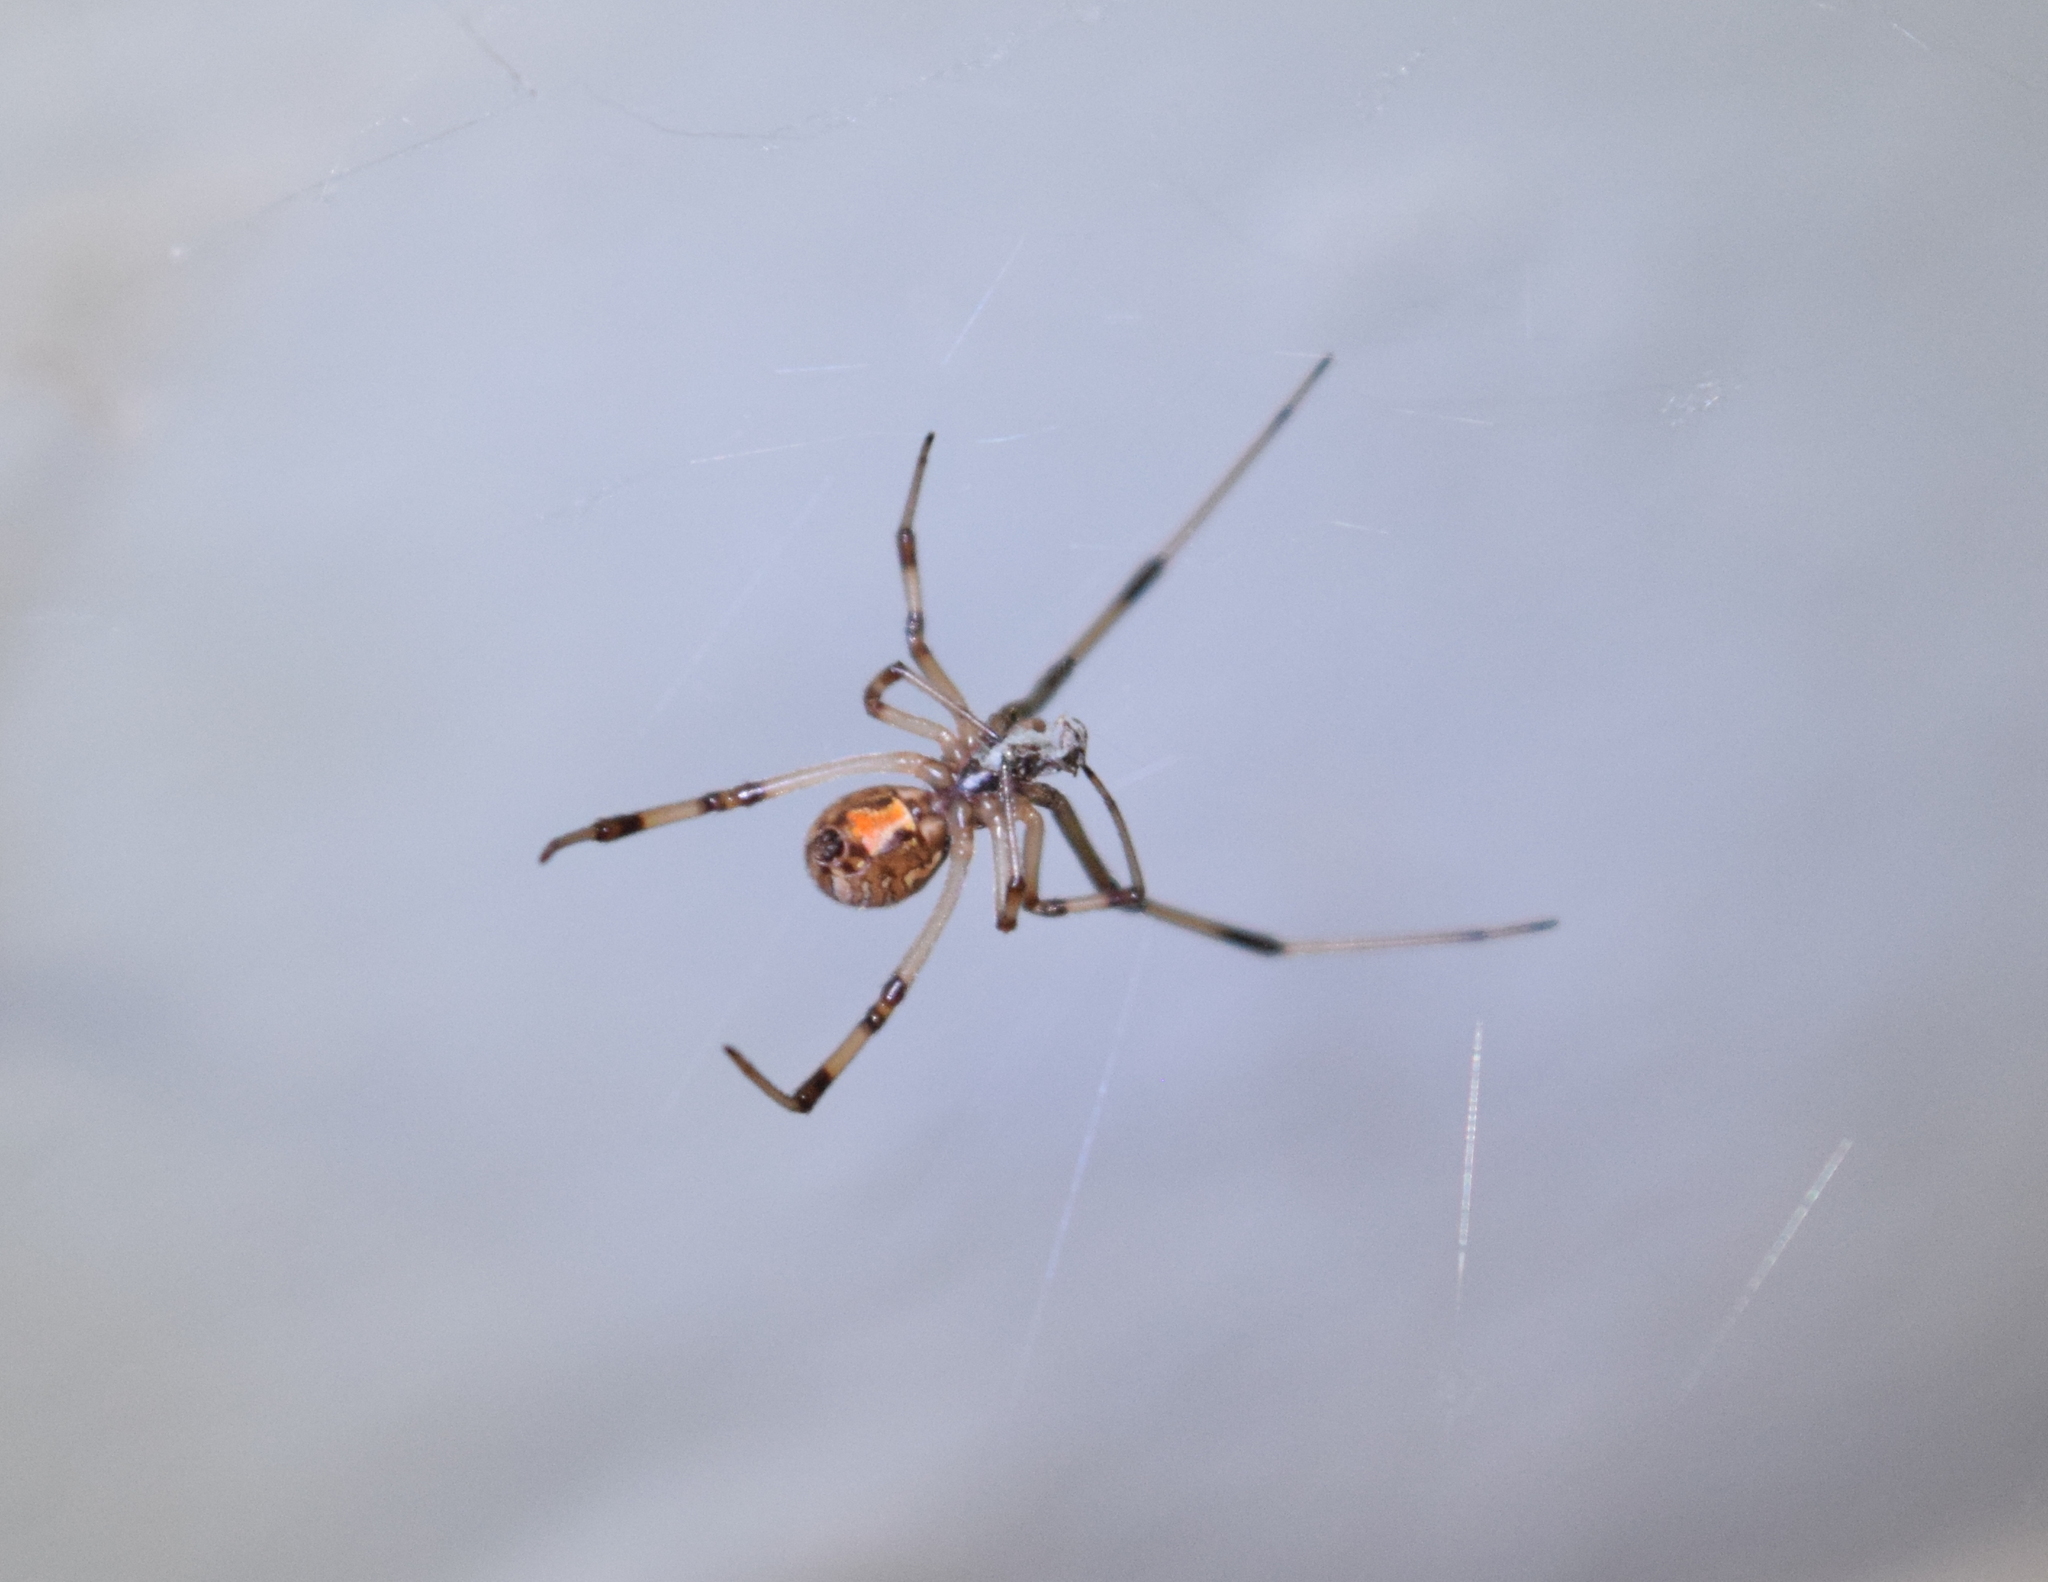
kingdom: Animalia
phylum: Arthropoda
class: Arachnida
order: Araneae
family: Theridiidae
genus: Latrodectus
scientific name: Latrodectus geometricus
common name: Brown widow spider
